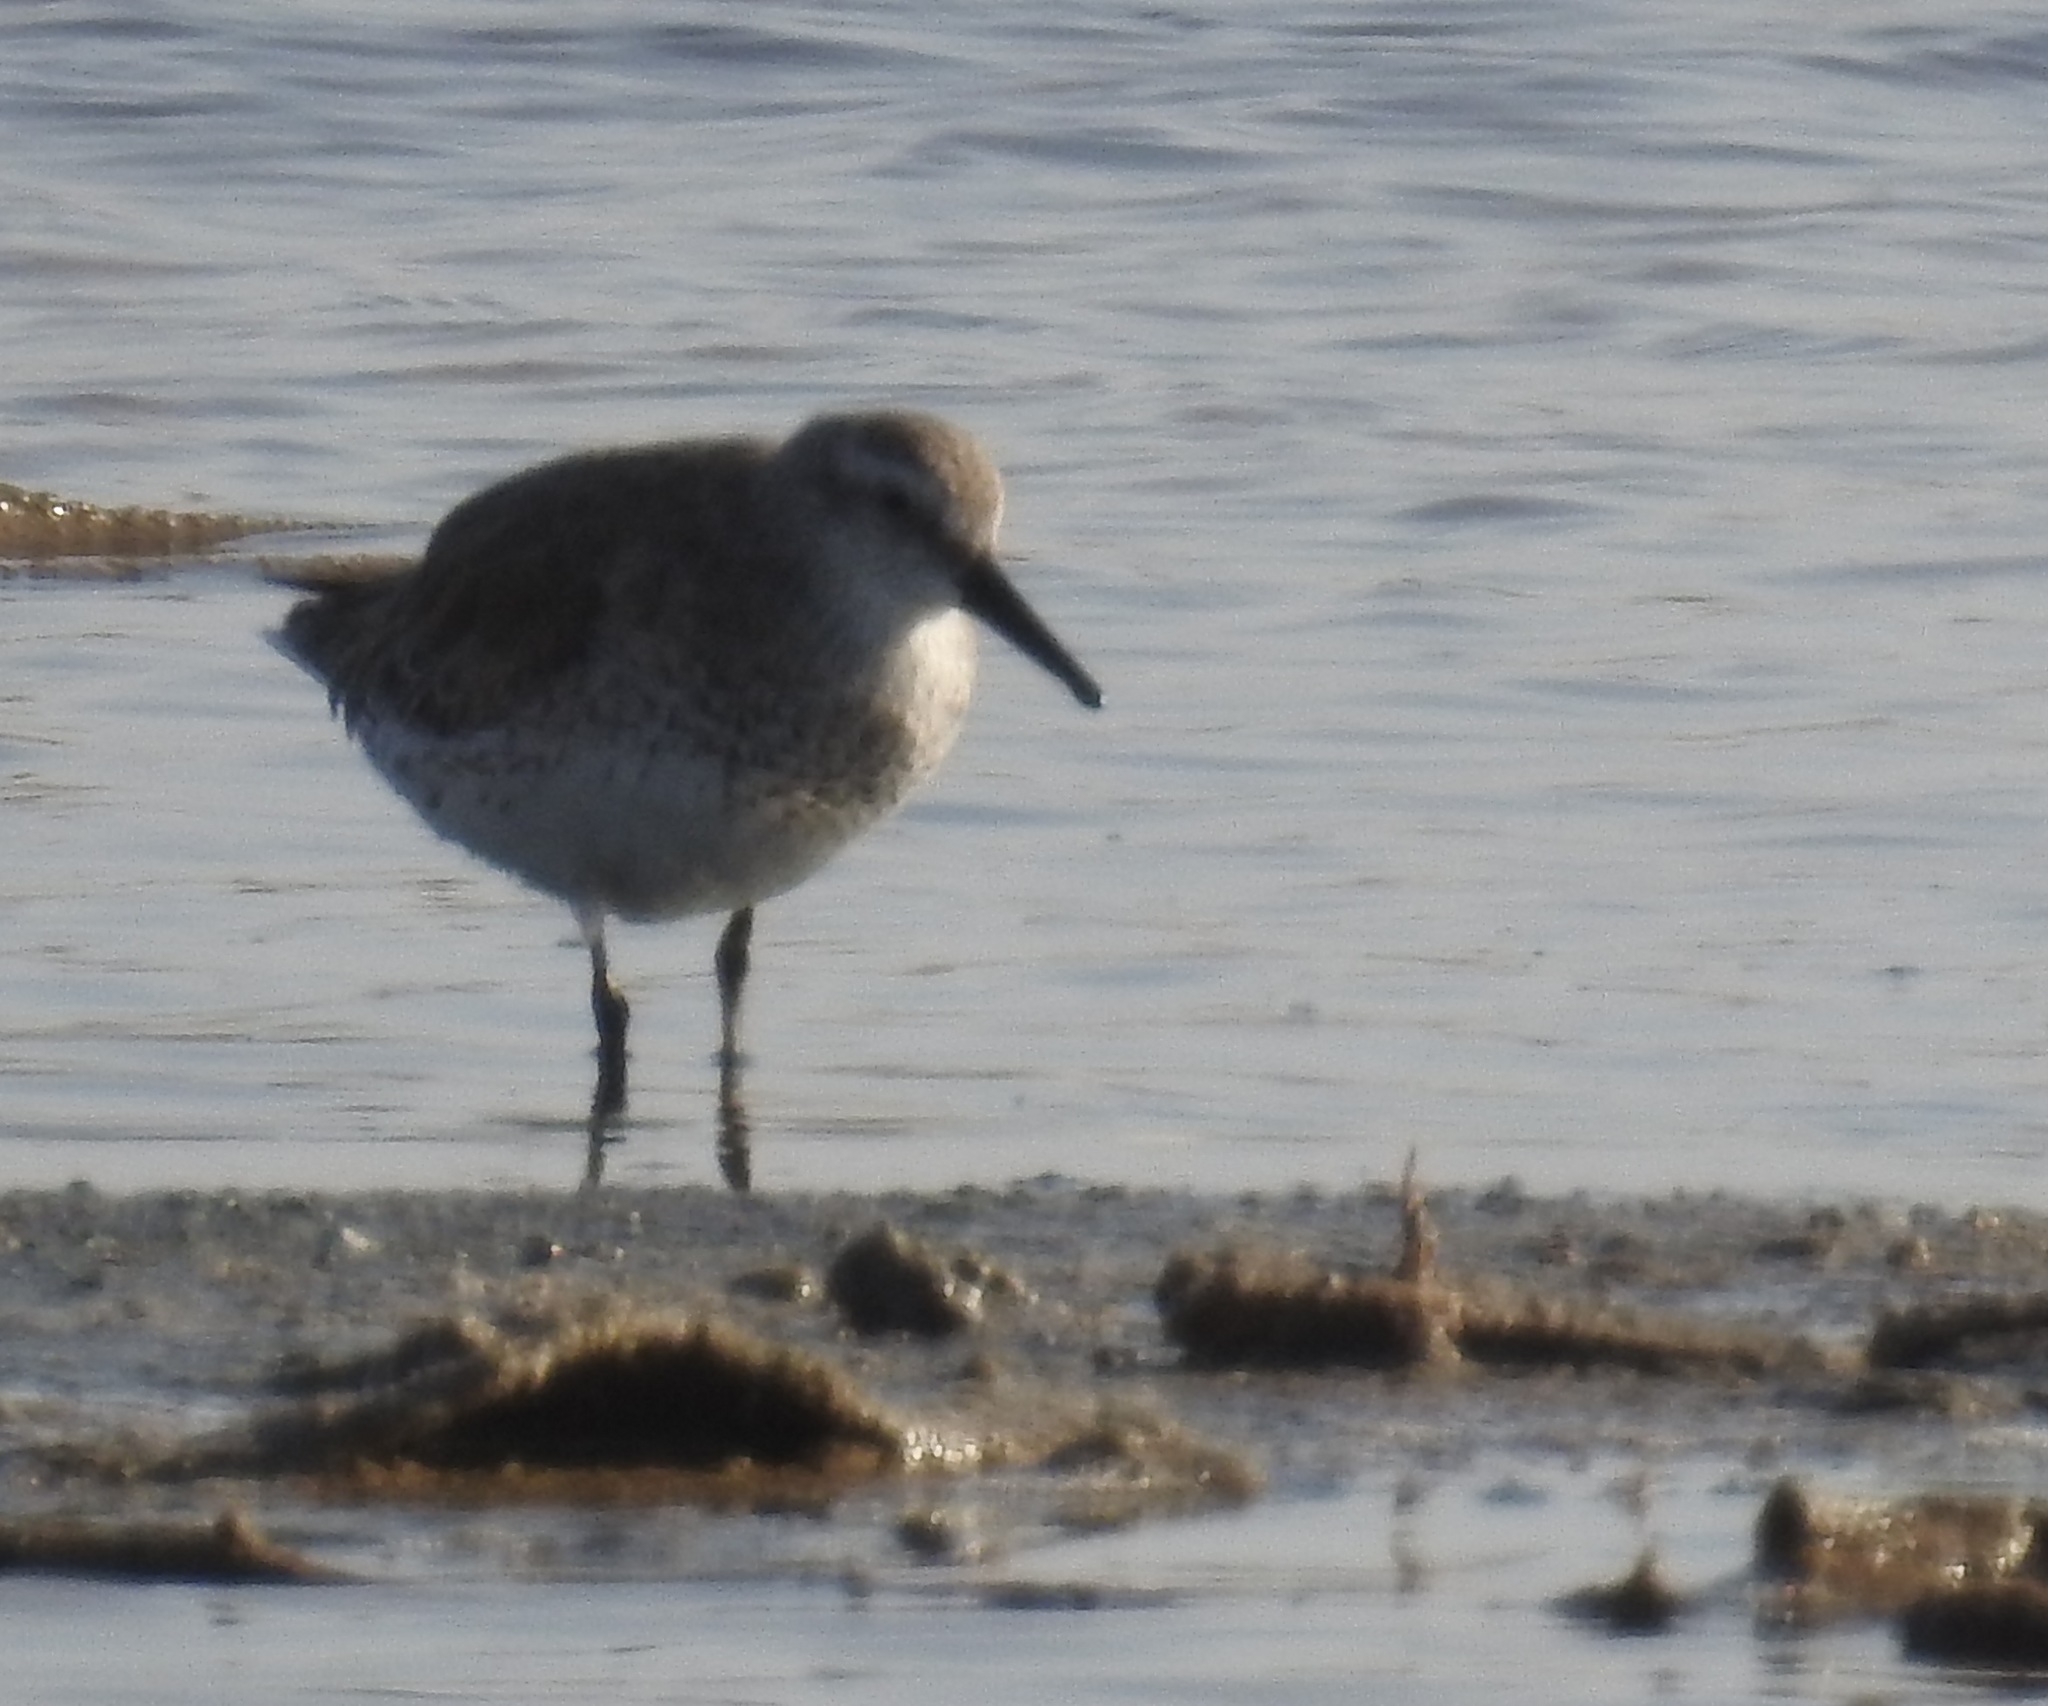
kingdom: Animalia
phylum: Chordata
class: Aves
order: Charadriiformes
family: Scolopacidae
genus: Calidris
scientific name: Calidris canutus
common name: Red knot
